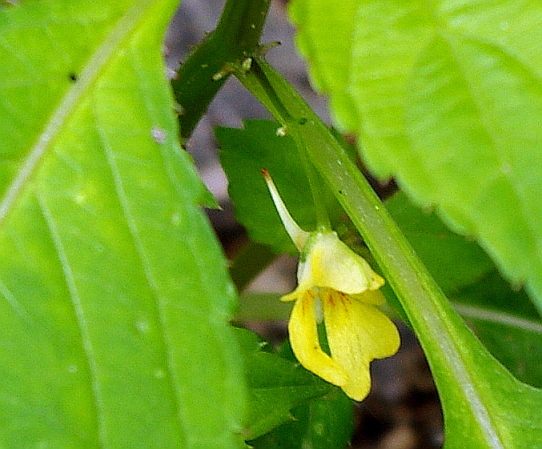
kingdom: Plantae
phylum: Tracheophyta
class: Magnoliopsida
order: Ericales
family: Balsaminaceae
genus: Impatiens
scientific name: Impatiens parviflora
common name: Small balsam
